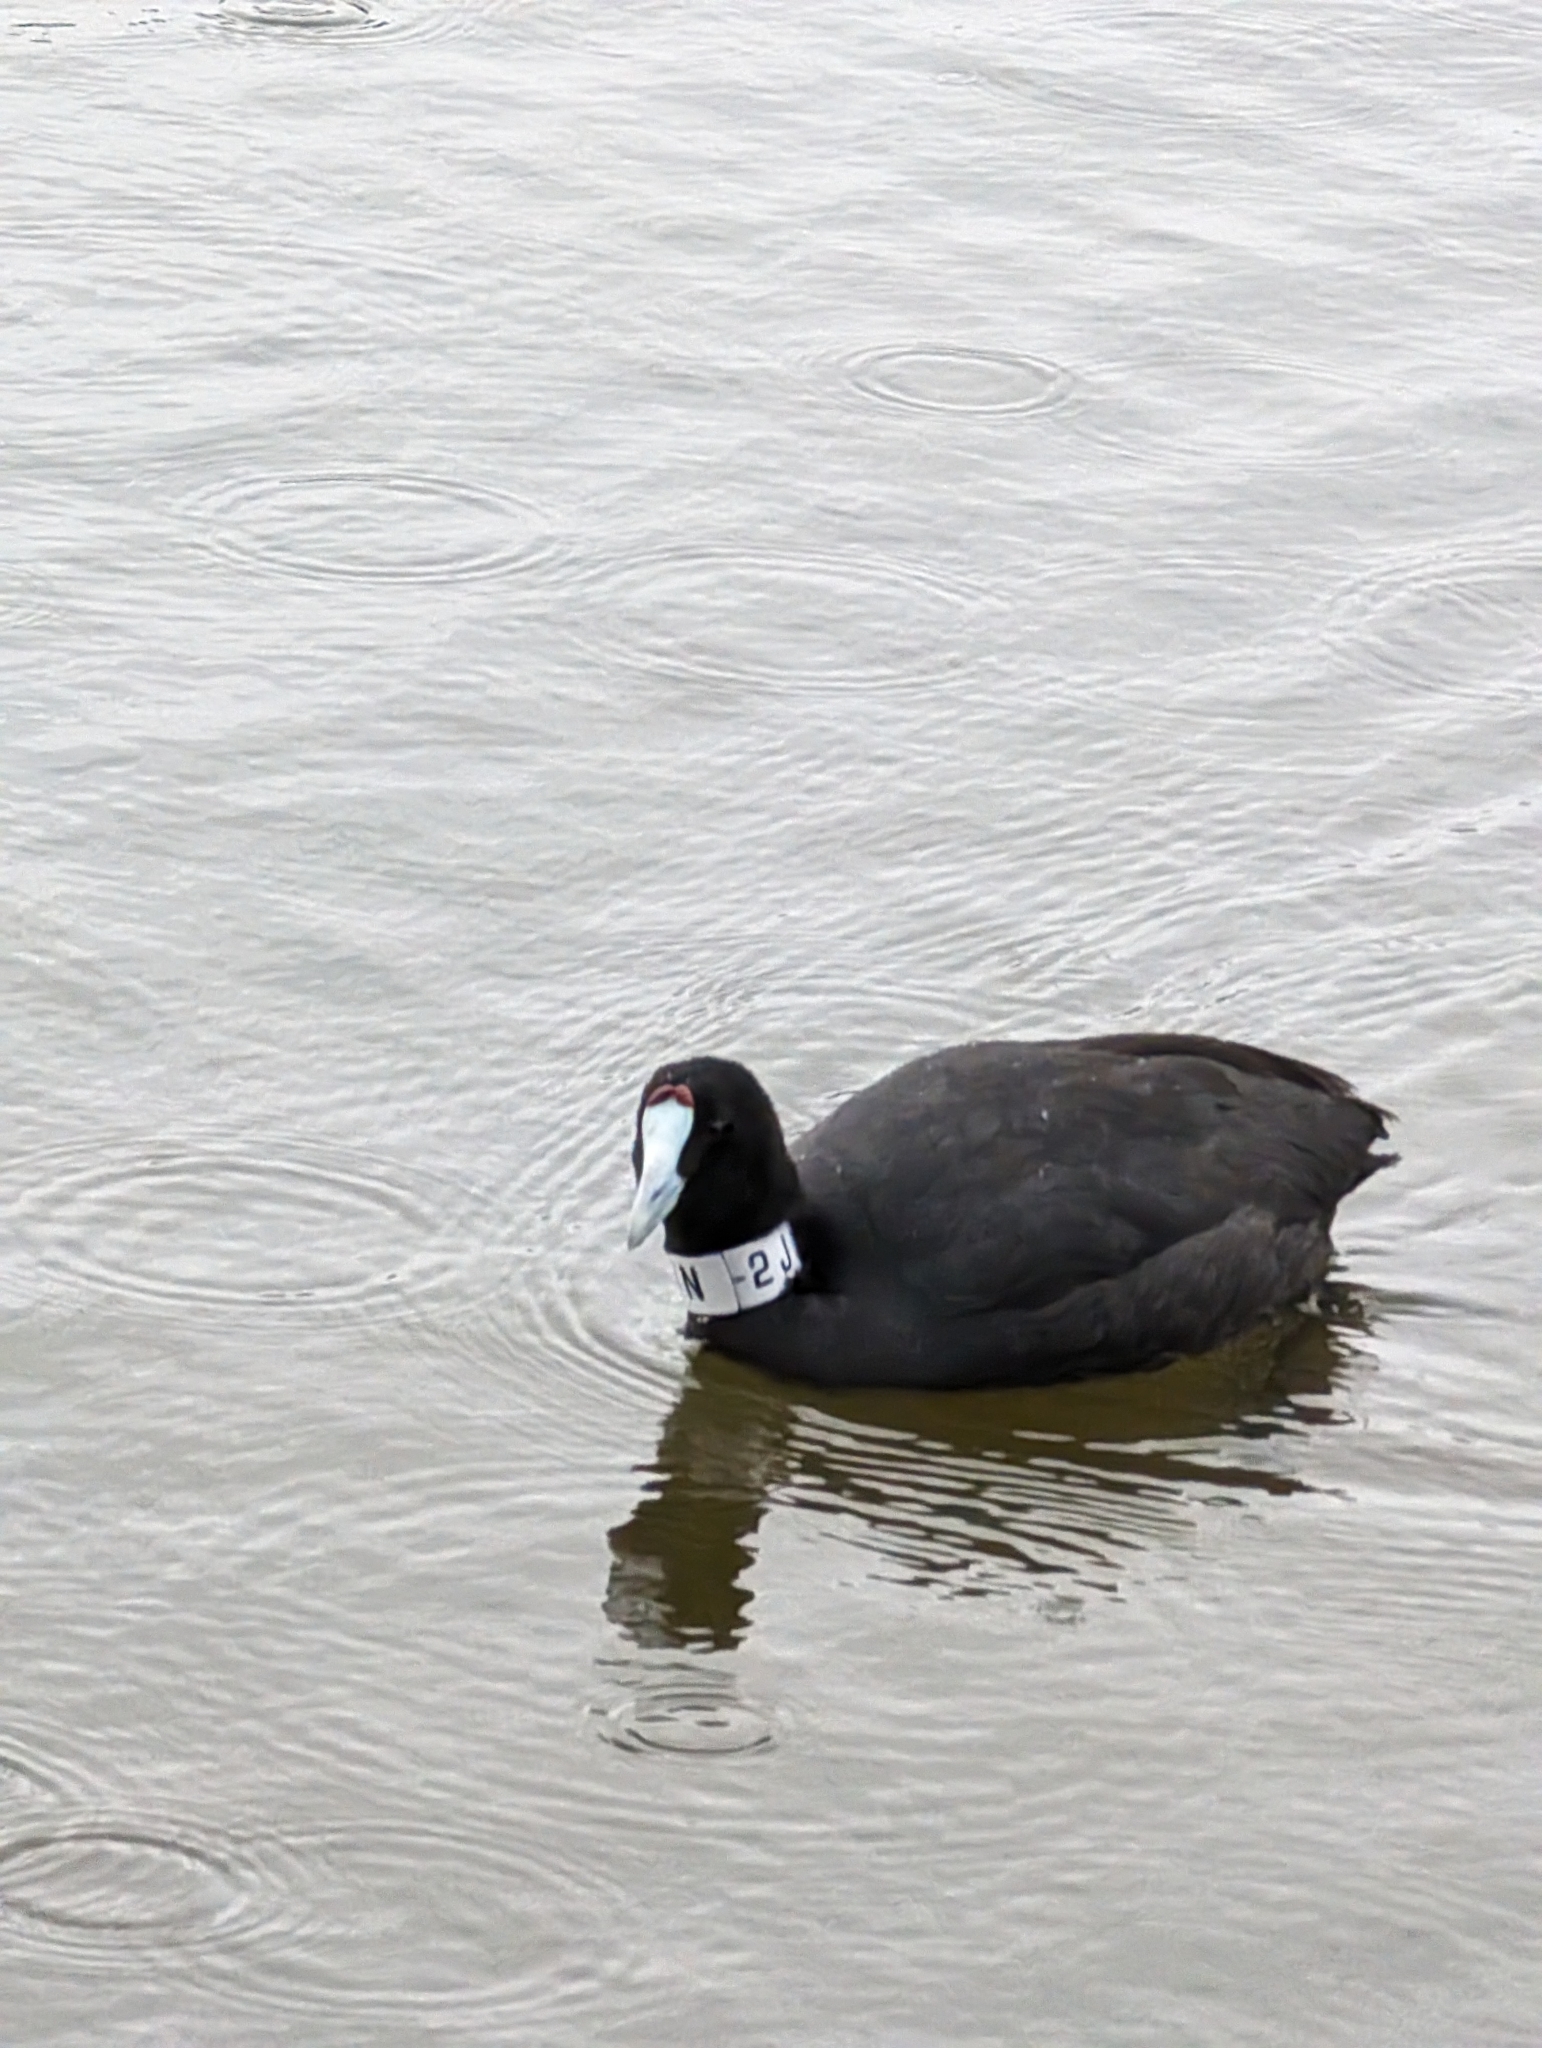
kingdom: Animalia
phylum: Chordata
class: Aves
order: Gruiformes
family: Rallidae
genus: Fulica
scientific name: Fulica cristata
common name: Red-knobbed coot
